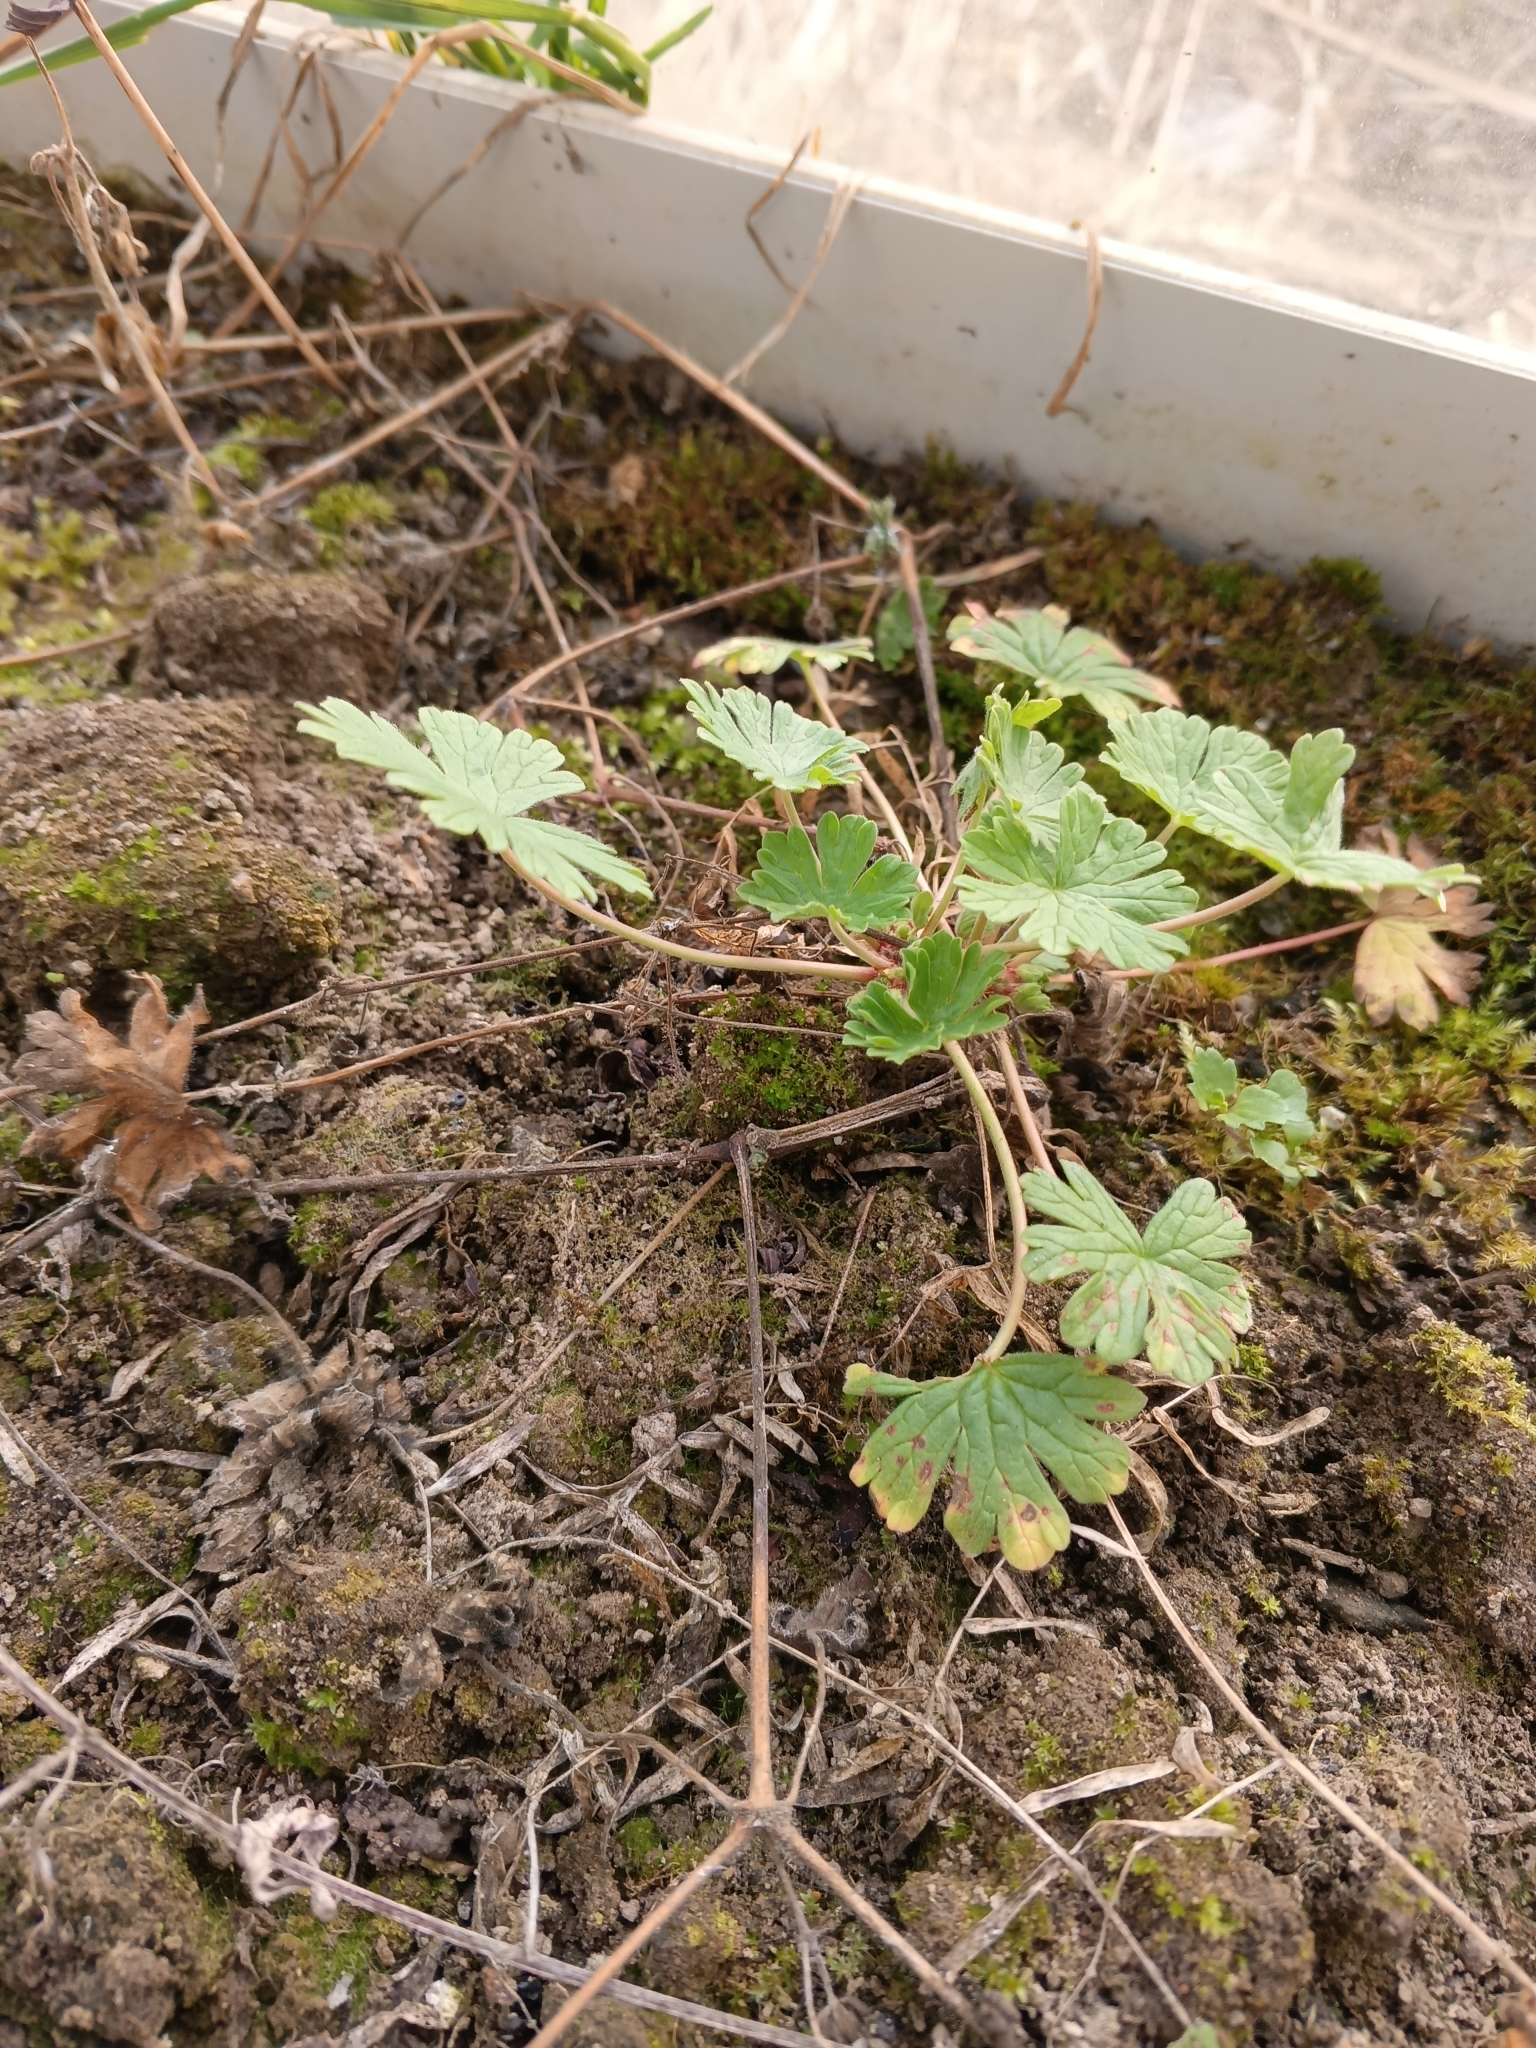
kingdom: Plantae
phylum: Tracheophyta
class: Magnoliopsida
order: Geraniales
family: Geraniaceae
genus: Geranium
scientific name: Geranium pusillum
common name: Small geranium
